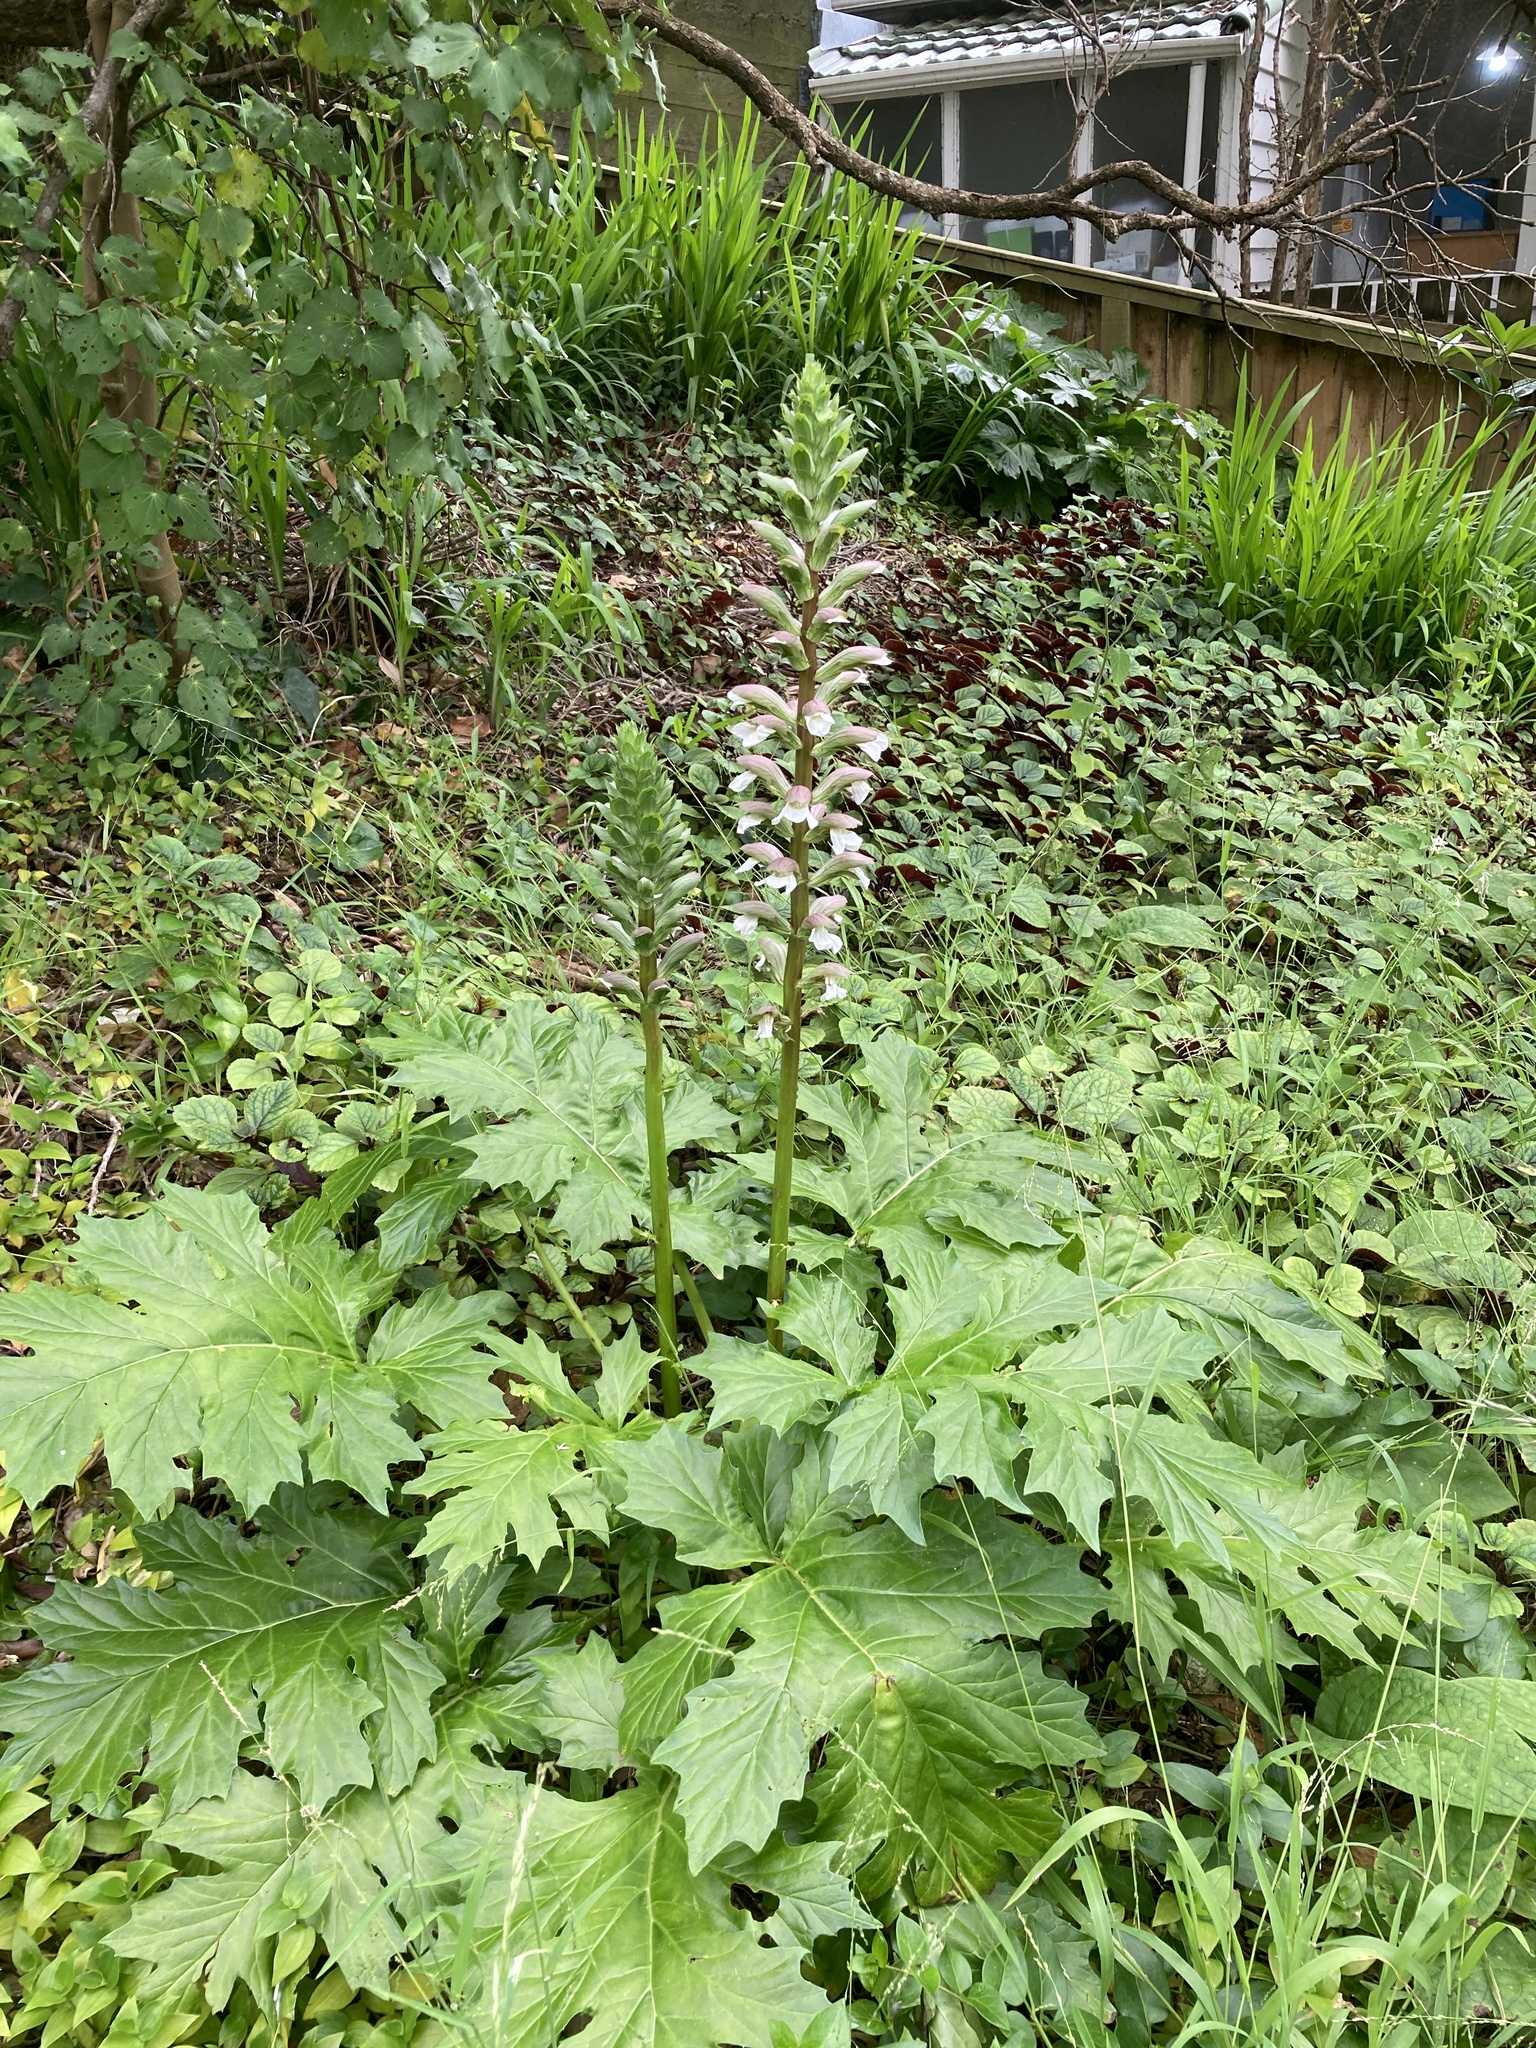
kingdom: Plantae
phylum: Tracheophyta
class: Magnoliopsida
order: Lamiales
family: Acanthaceae
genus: Acanthus
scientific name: Acanthus mollis
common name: Bear's-breech
